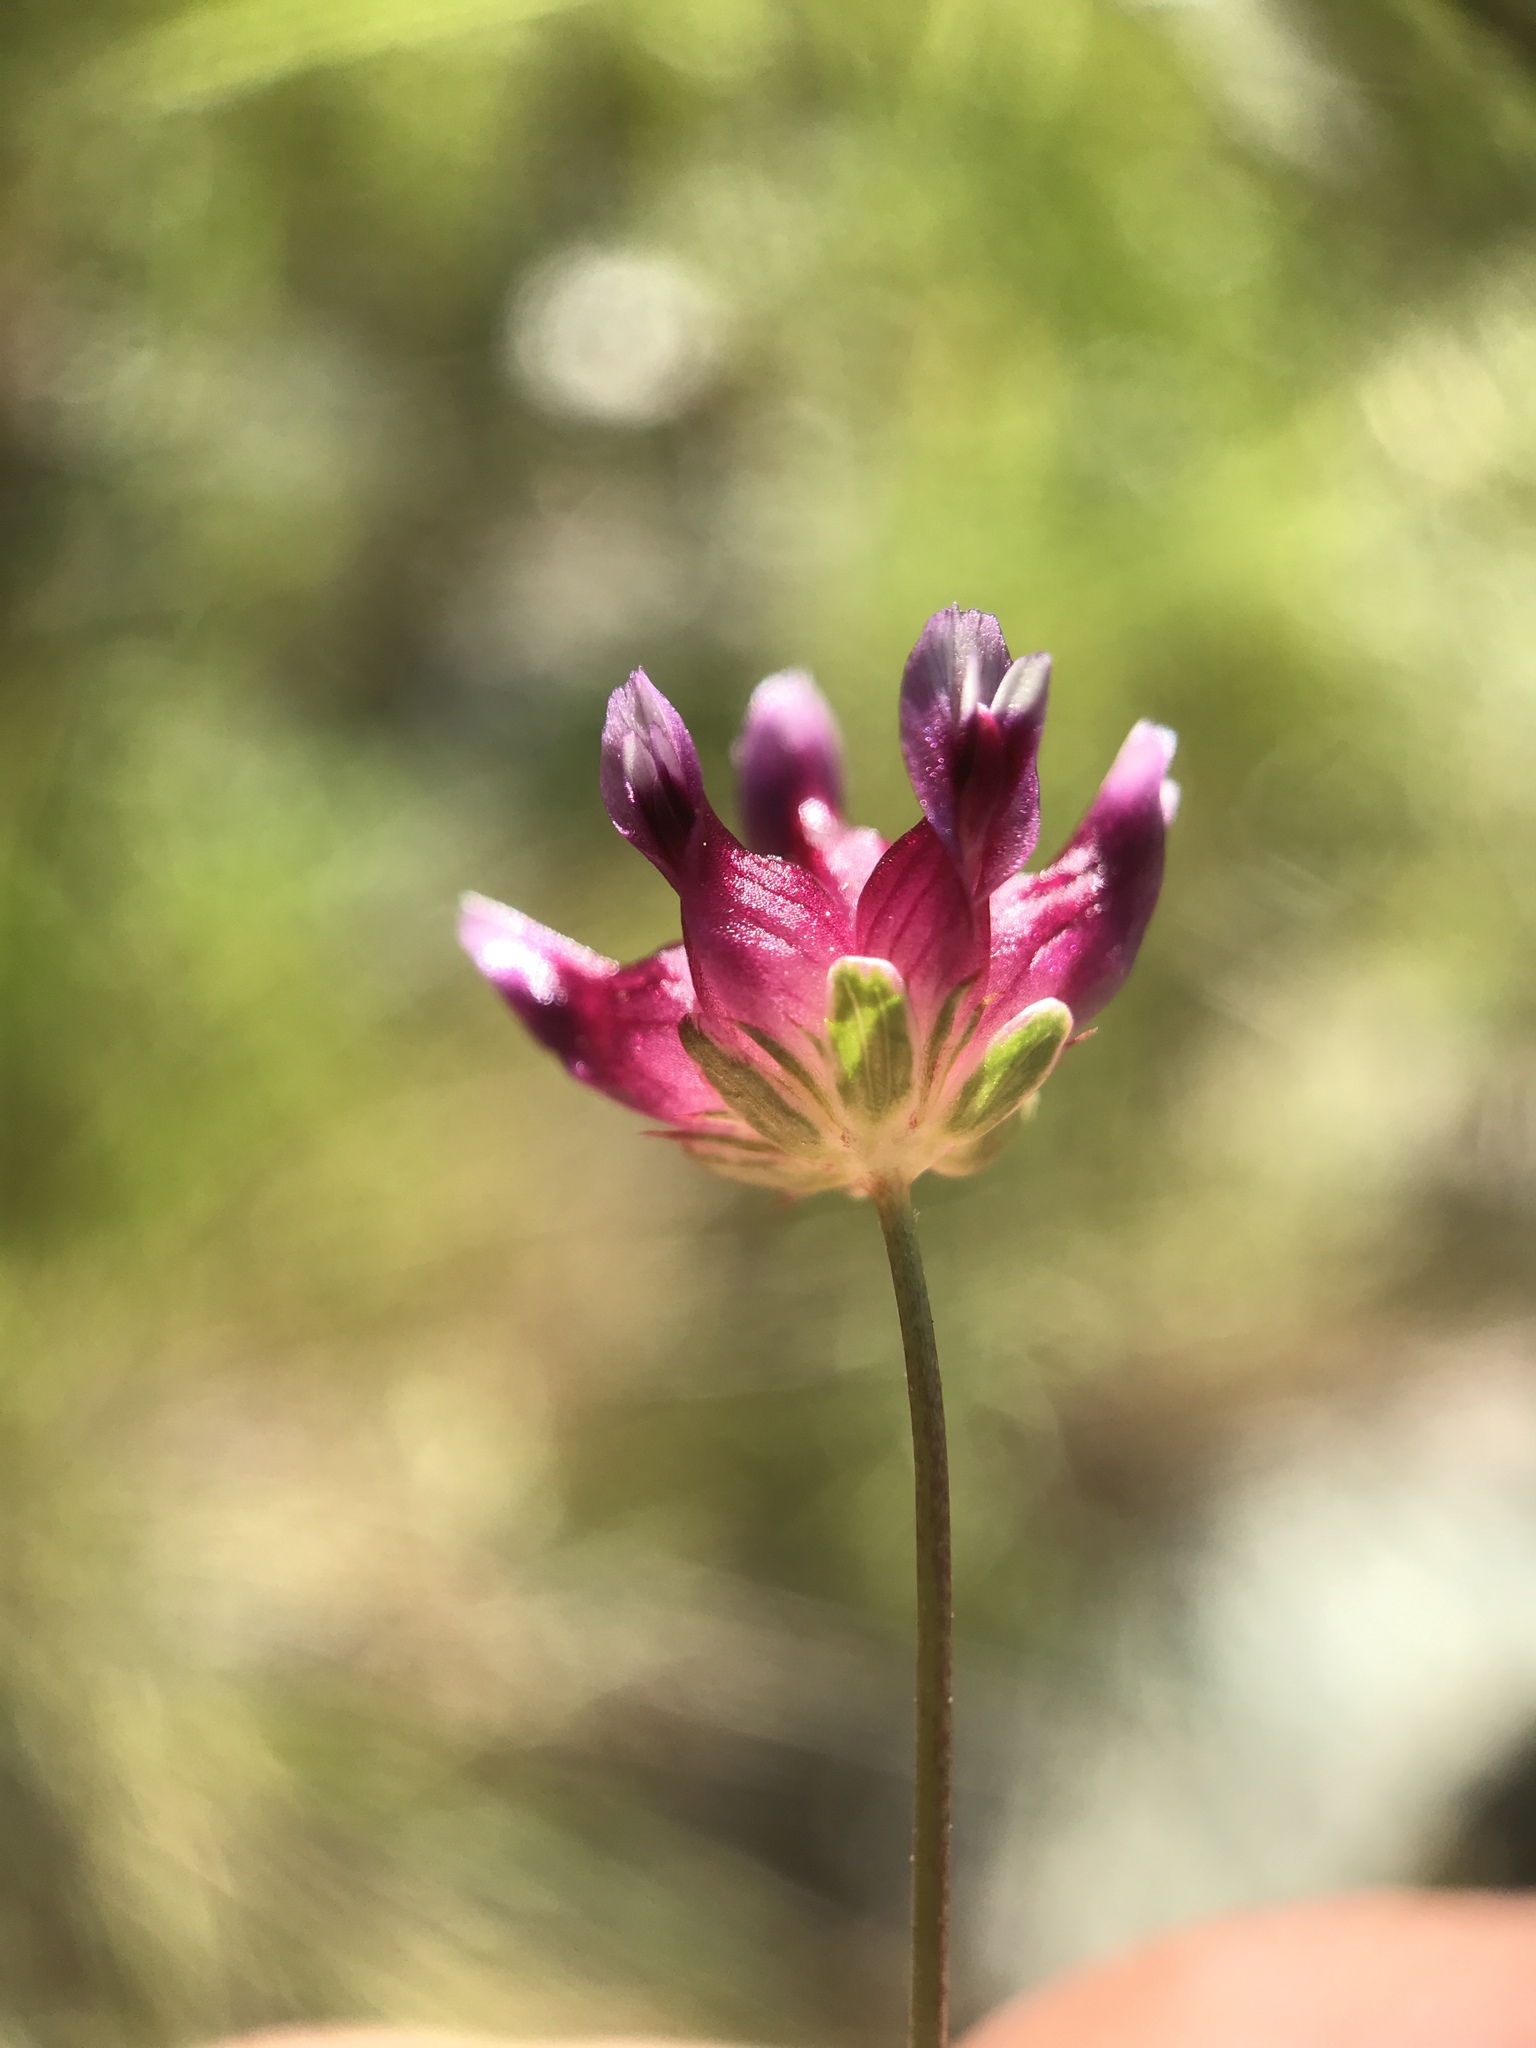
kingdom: Plantae
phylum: Tracheophyta
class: Magnoliopsida
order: Fabales
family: Fabaceae
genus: Trifolium
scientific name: Trifolium depauperatum
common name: Poverty clover
